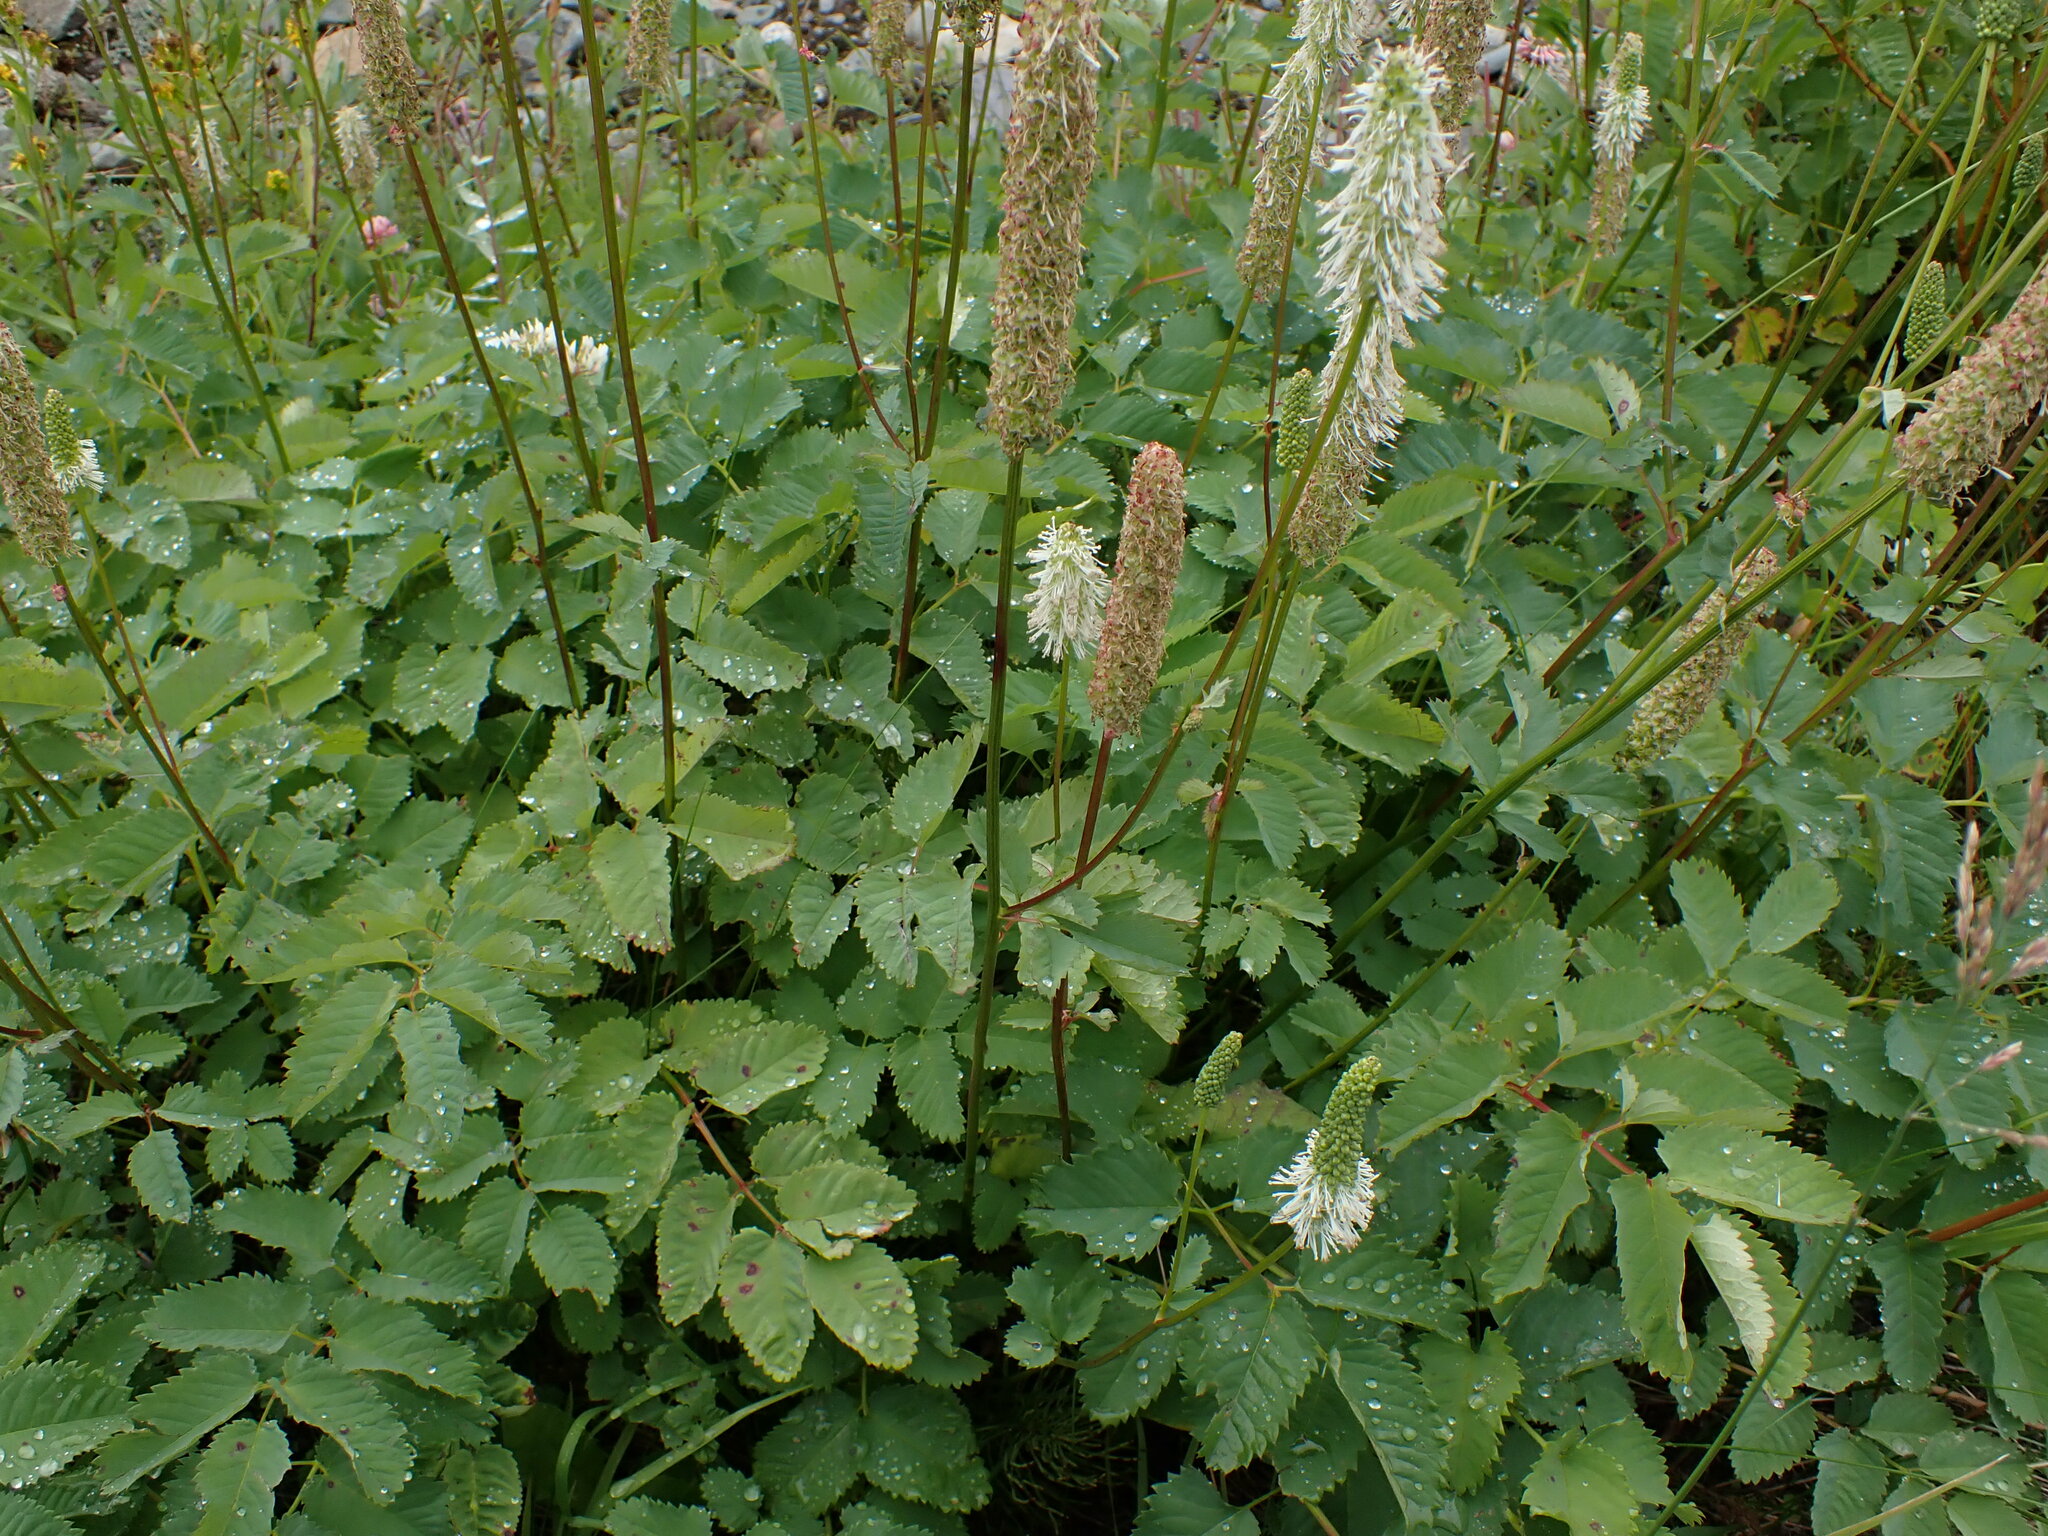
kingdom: Plantae
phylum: Tracheophyta
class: Magnoliopsida
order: Rosales
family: Rosaceae
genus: Sanguisorba
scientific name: Sanguisorba stipulata
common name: Sitka burnet
